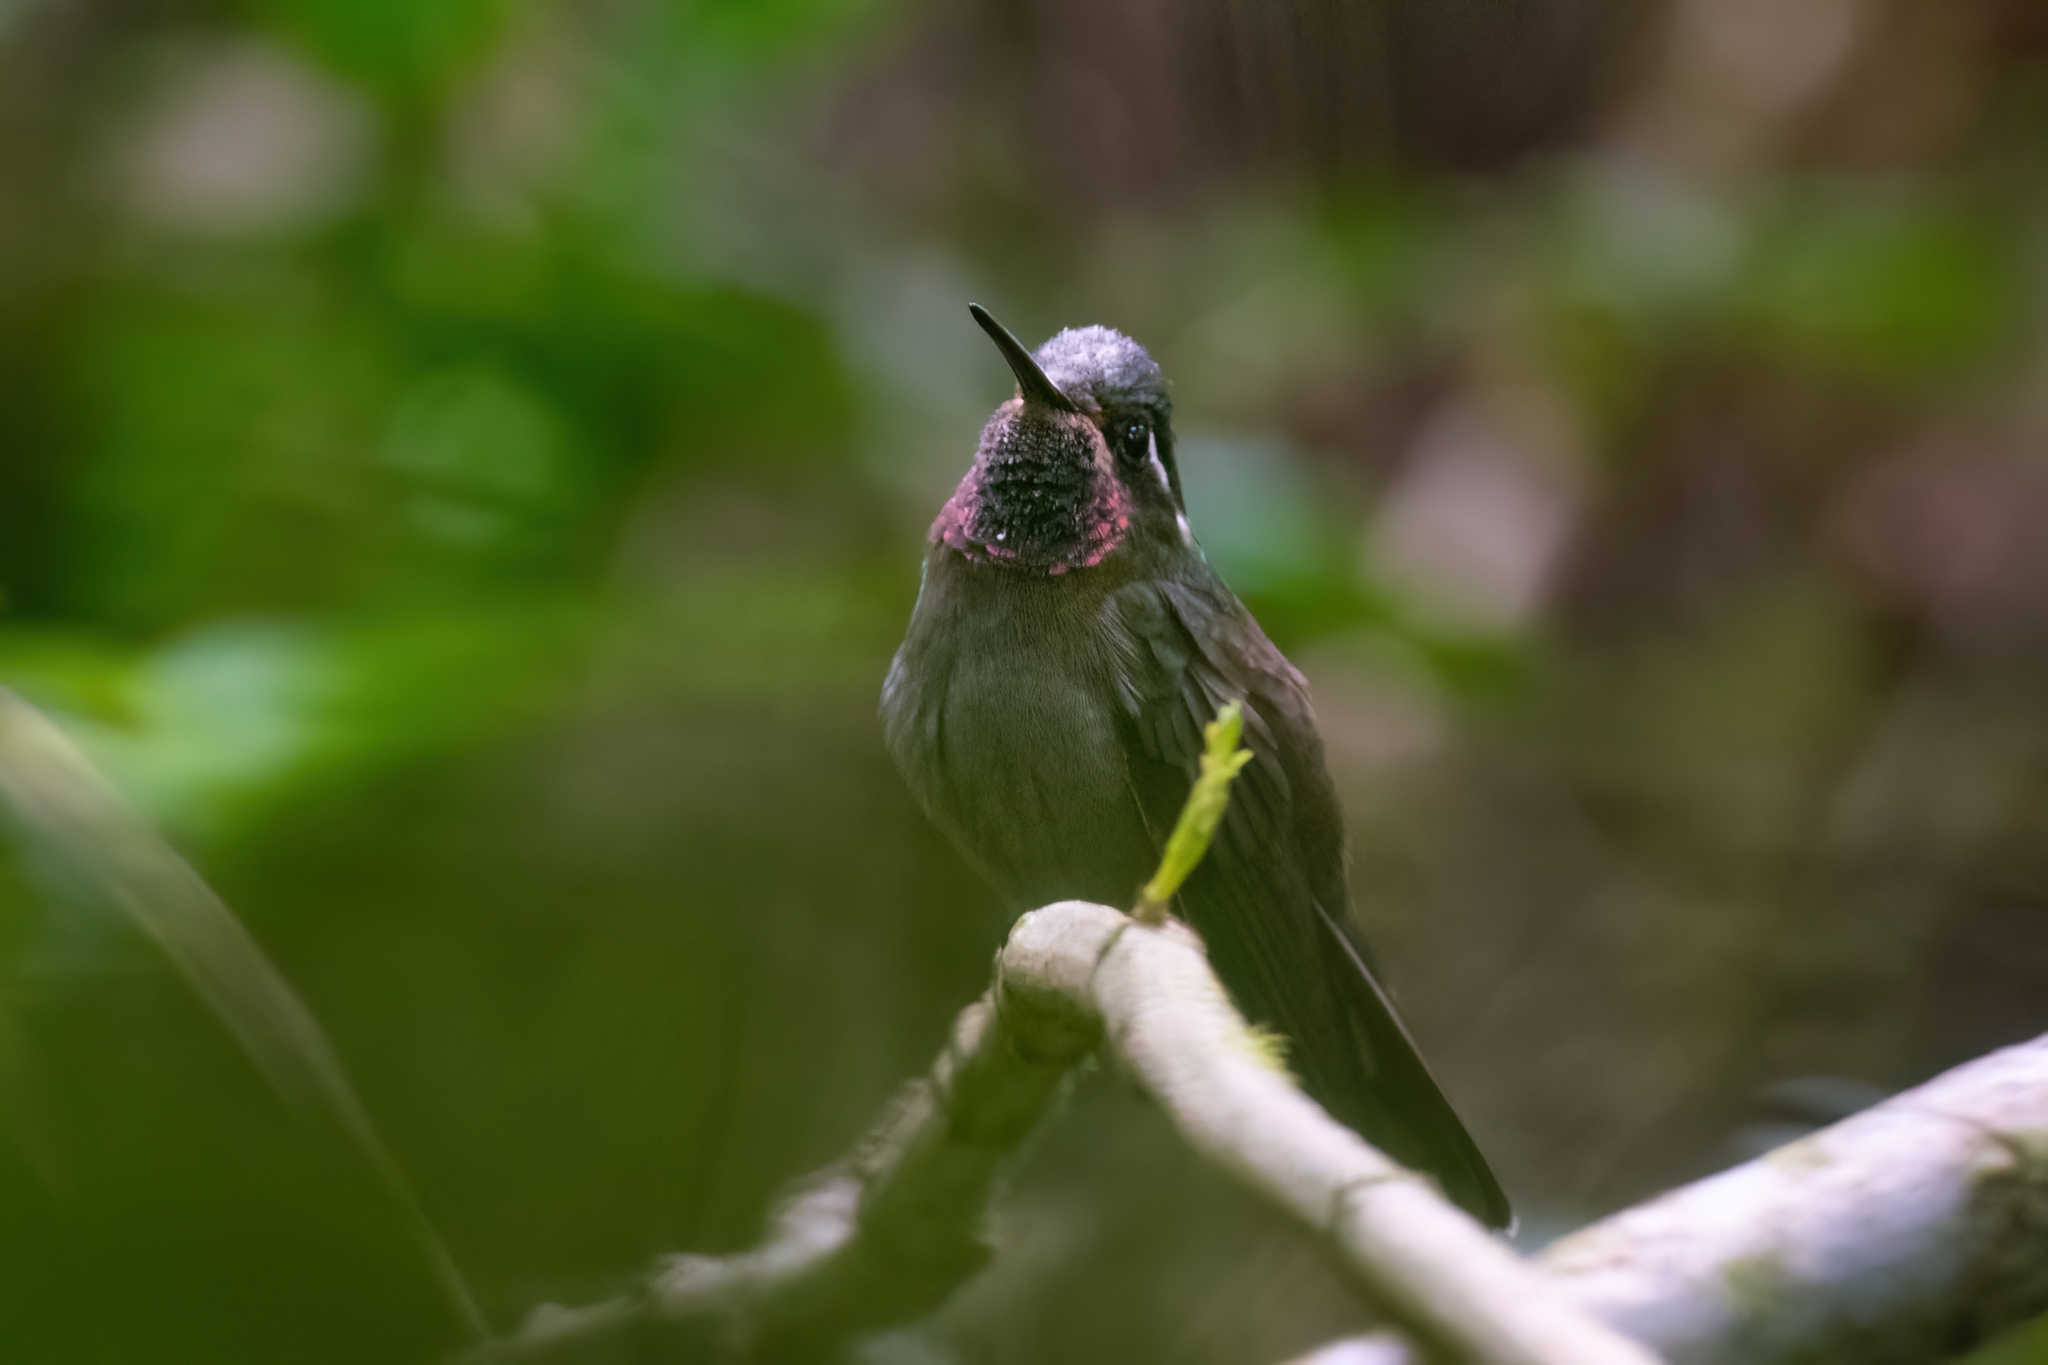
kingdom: Animalia
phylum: Chordata
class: Aves
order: Apodiformes
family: Trochilidae
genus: Lampornis
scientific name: Lampornis amethystinus
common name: Amethyst-throated mountaingem
